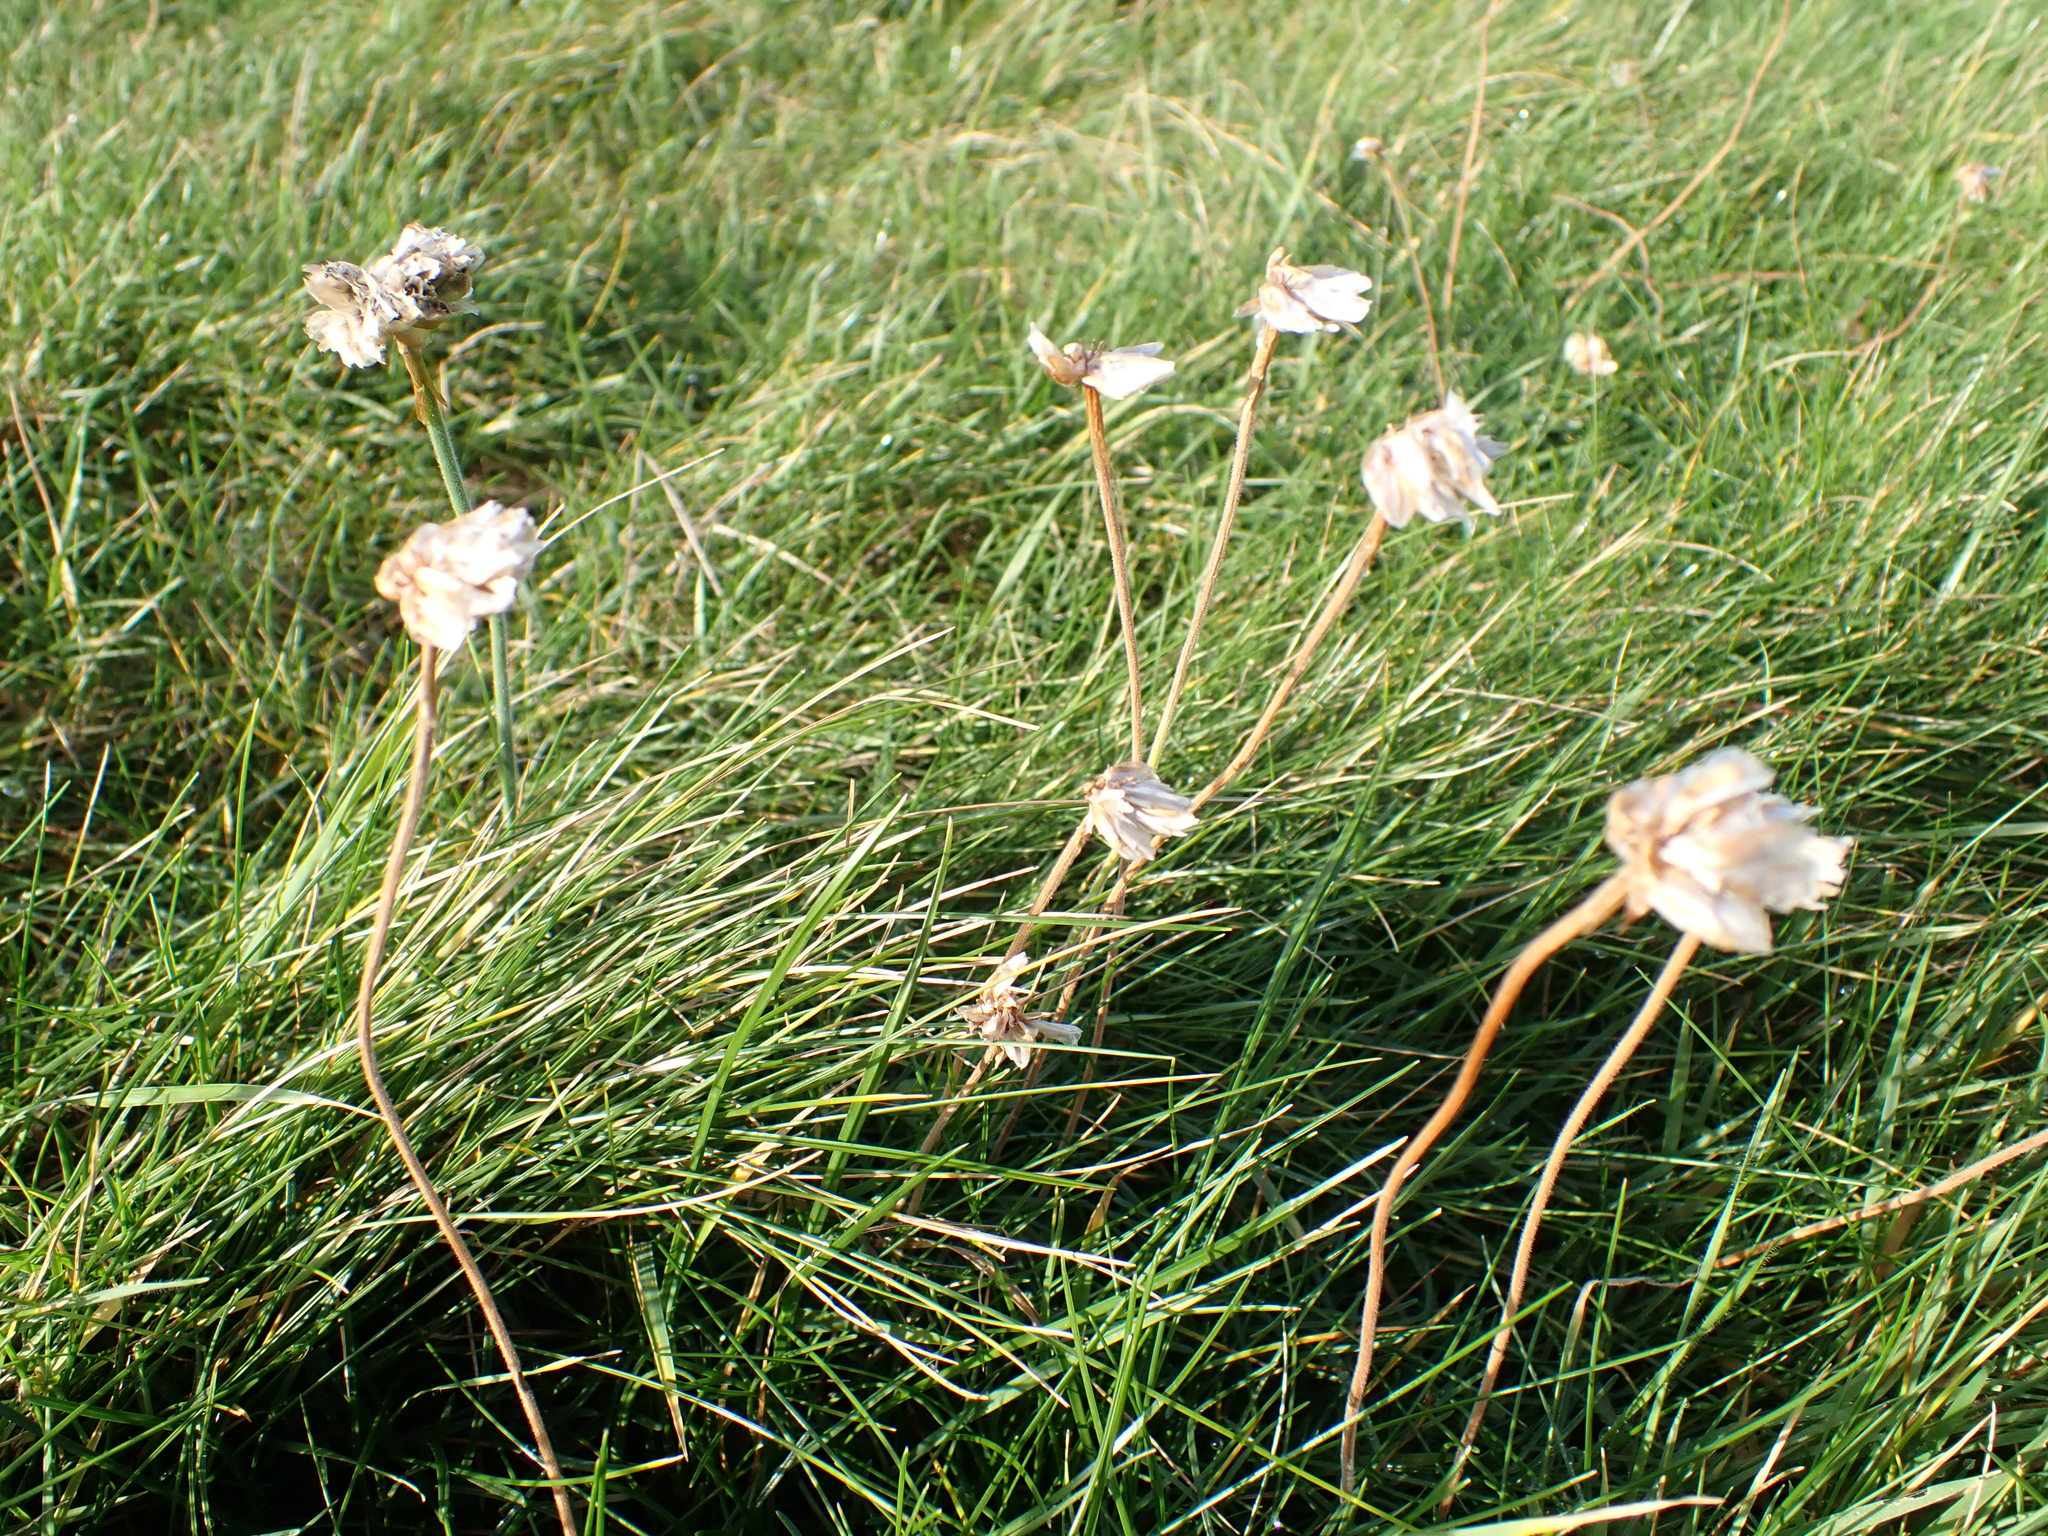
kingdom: Plantae
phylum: Tracheophyta
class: Magnoliopsida
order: Caryophyllales
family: Plumbaginaceae
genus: Armeria
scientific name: Armeria maritima
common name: Thrift
